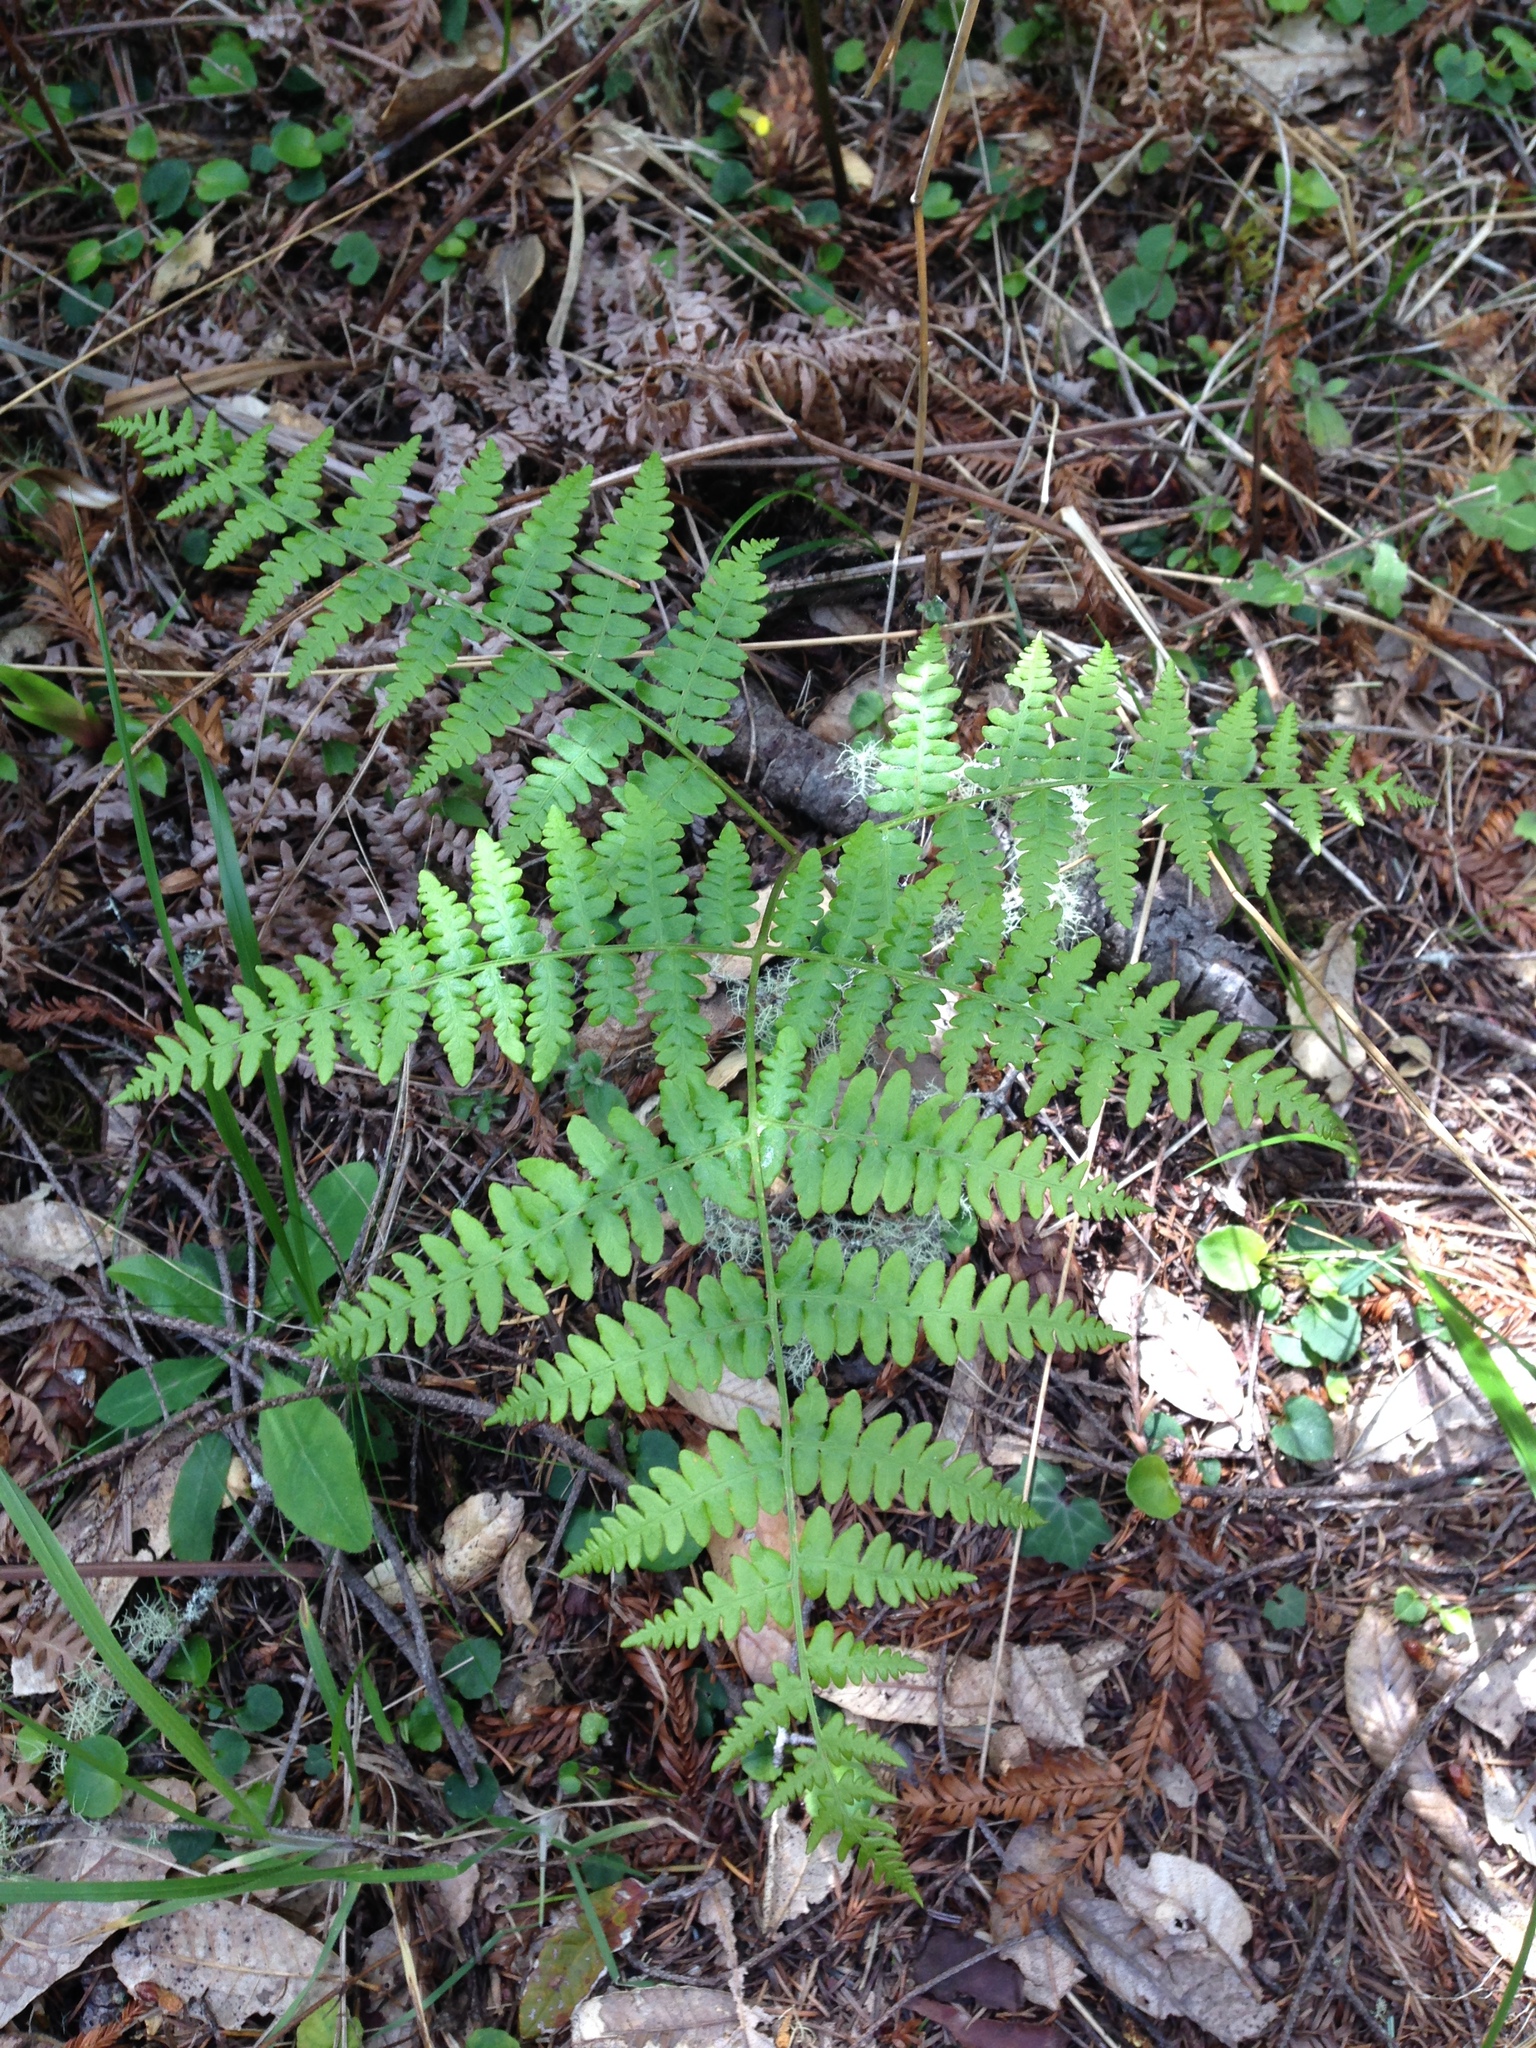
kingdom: Plantae
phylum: Tracheophyta
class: Polypodiopsida
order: Polypodiales
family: Dennstaedtiaceae
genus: Pteridium
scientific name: Pteridium aquilinum
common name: Bracken
